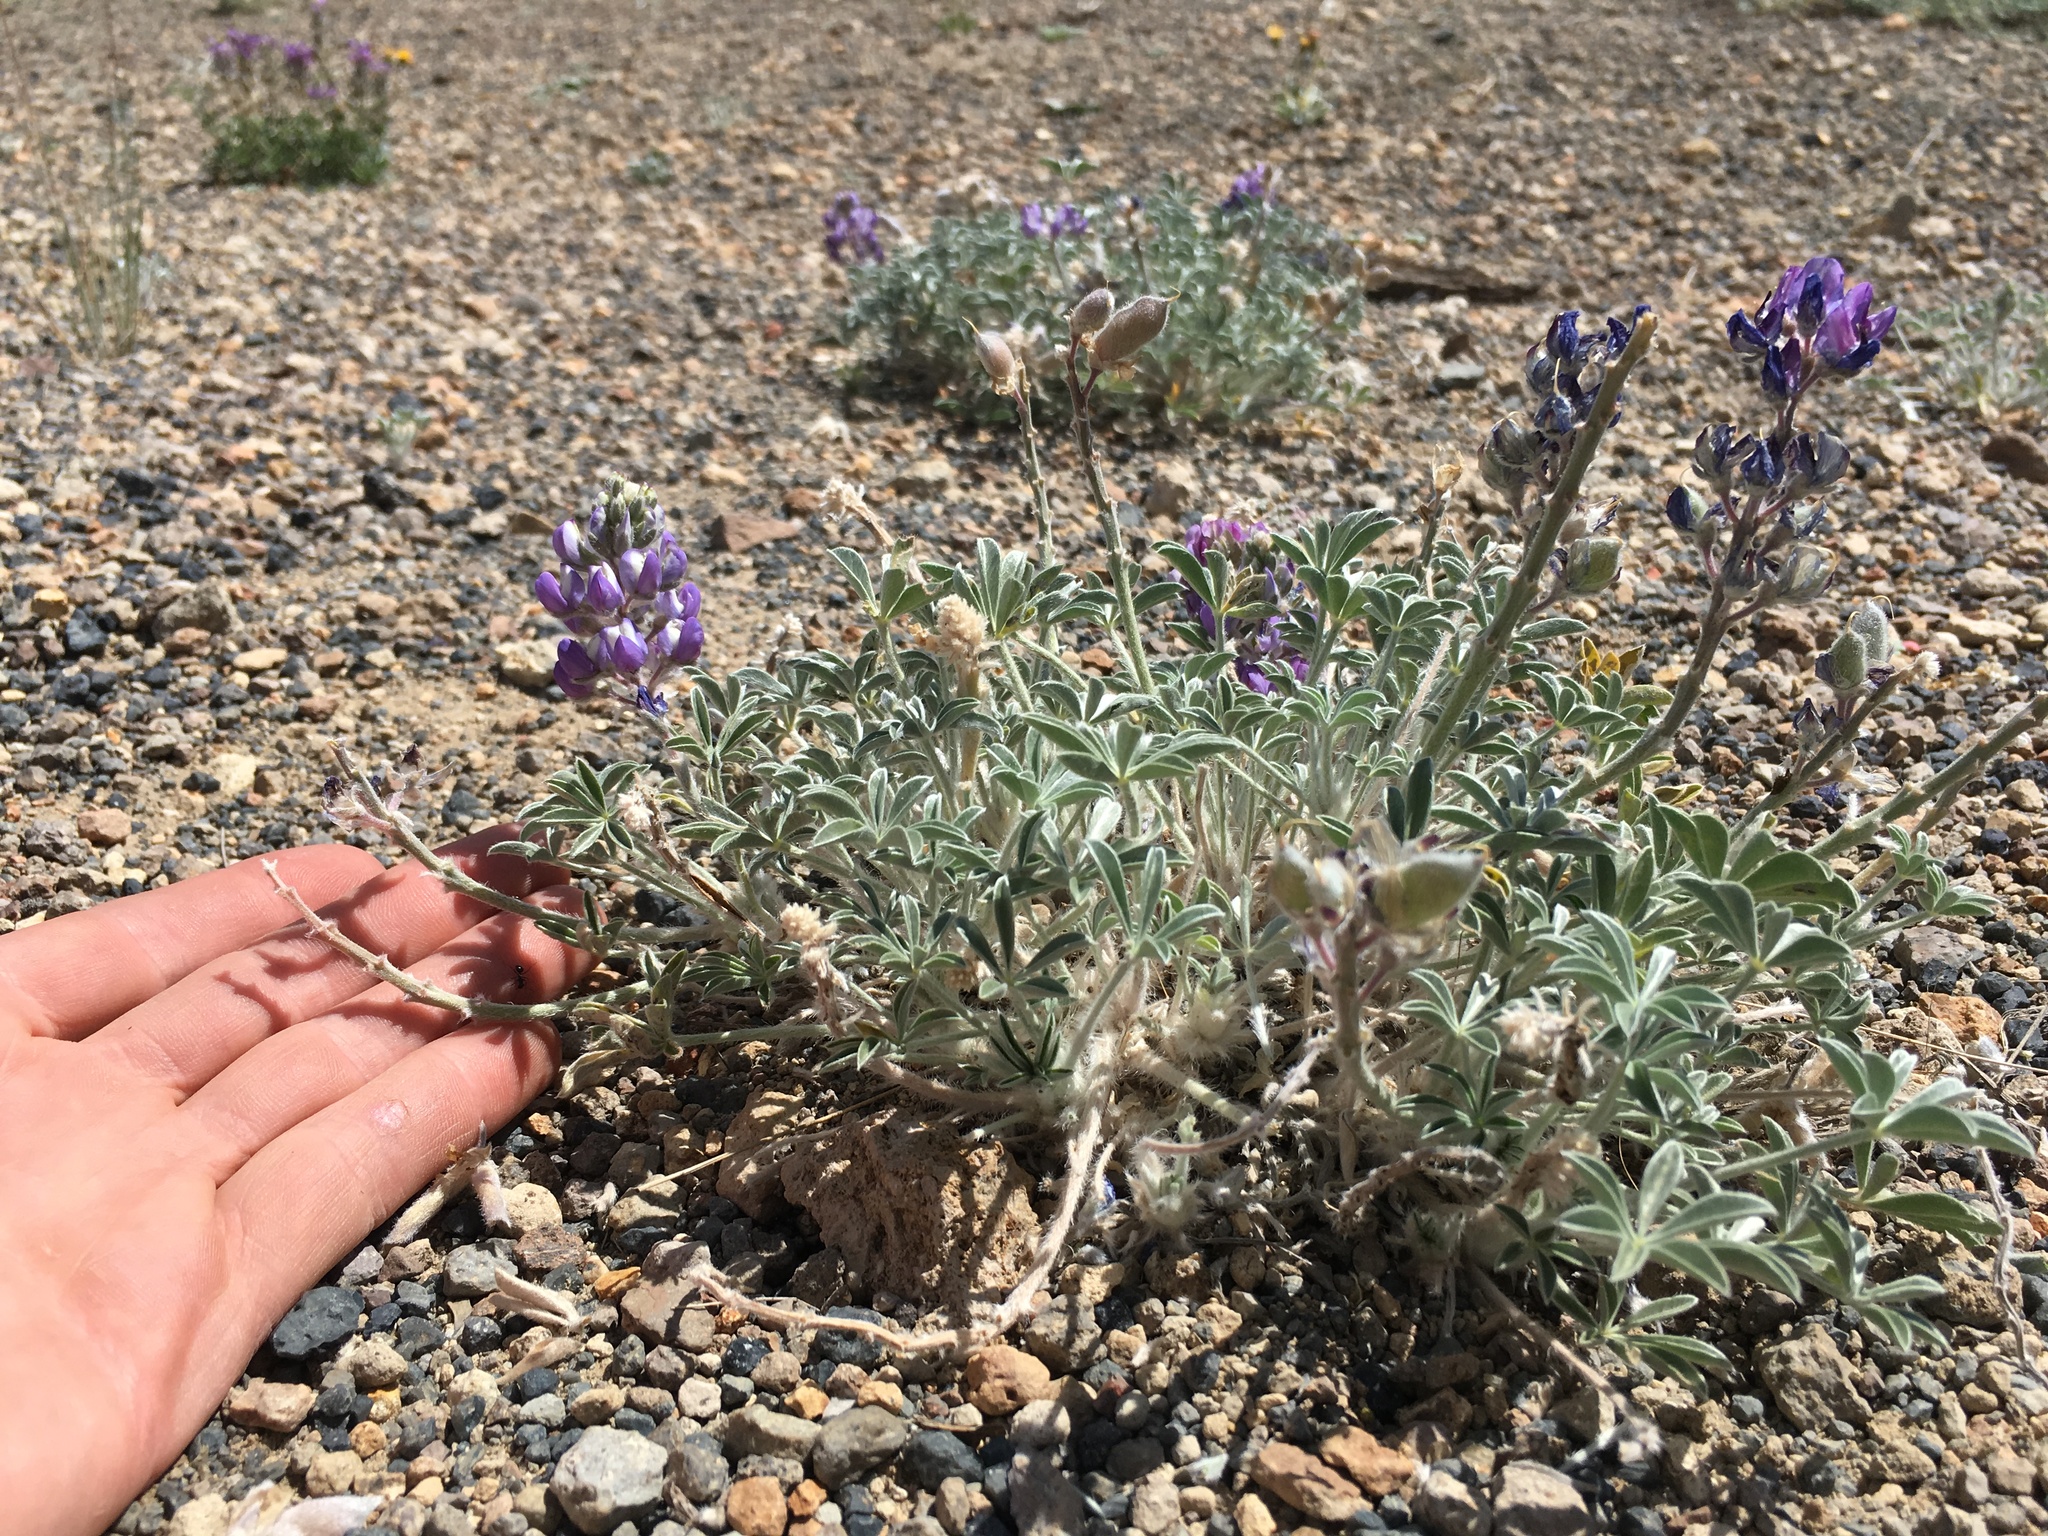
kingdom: Plantae
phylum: Tracheophyta
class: Magnoliopsida
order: Fabales
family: Fabaceae
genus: Lupinus
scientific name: Lupinus duranii
